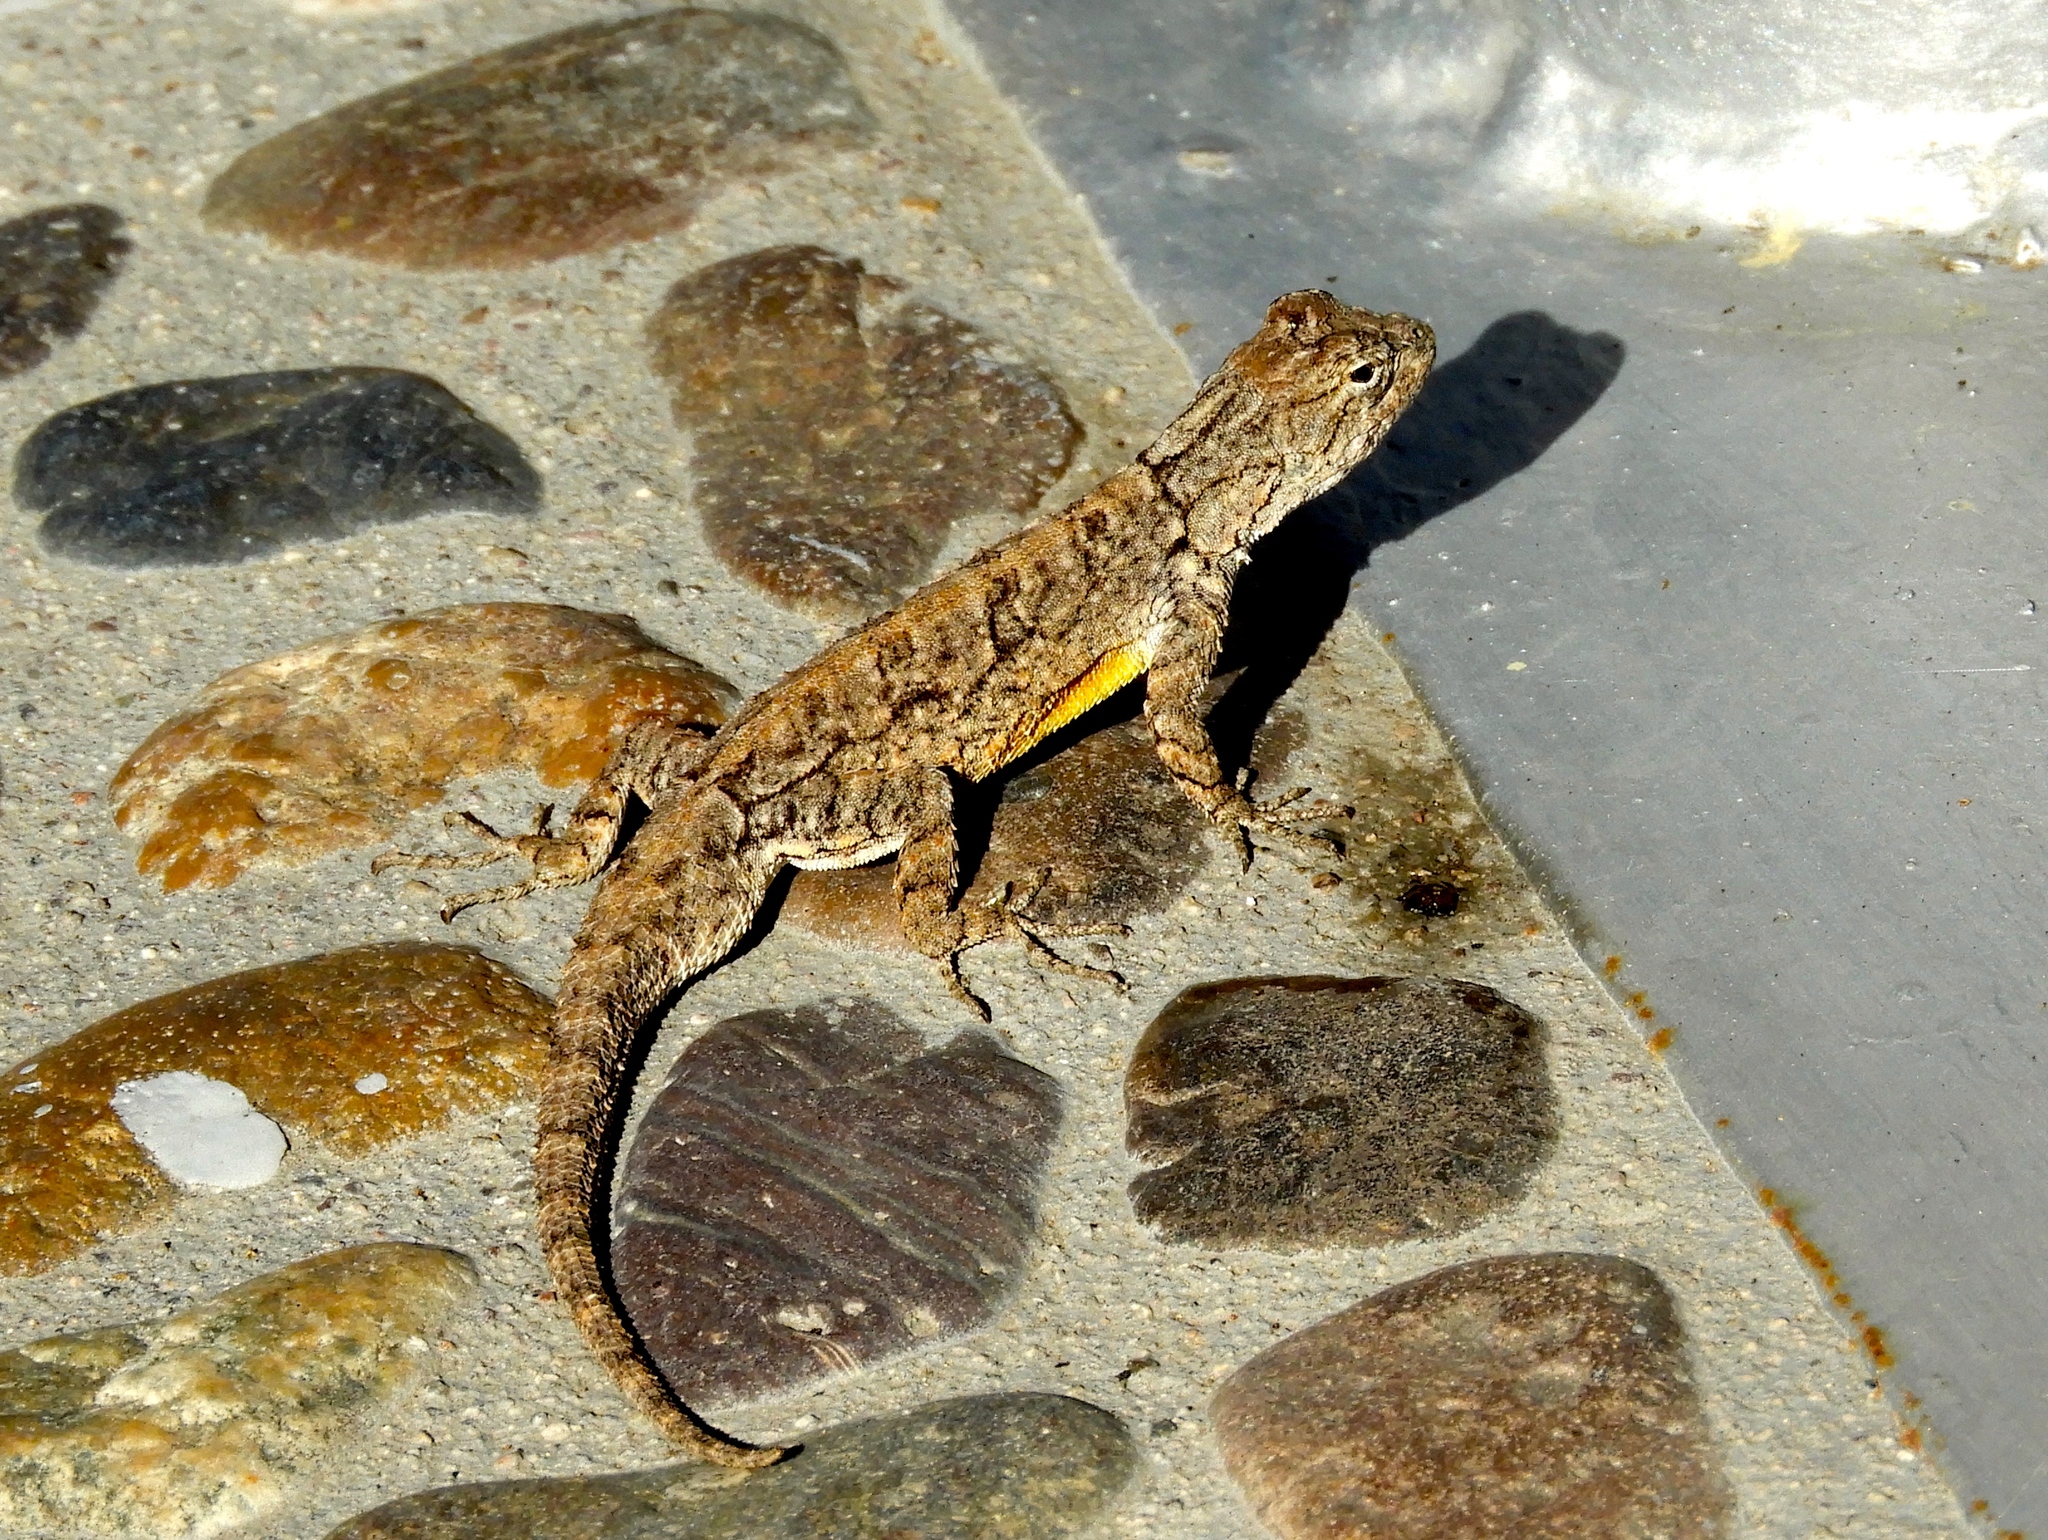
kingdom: Animalia
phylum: Chordata
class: Squamata
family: Phrynosomatidae
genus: Urosaurus
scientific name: Urosaurus bicarinatus
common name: Tropical tree lizard
